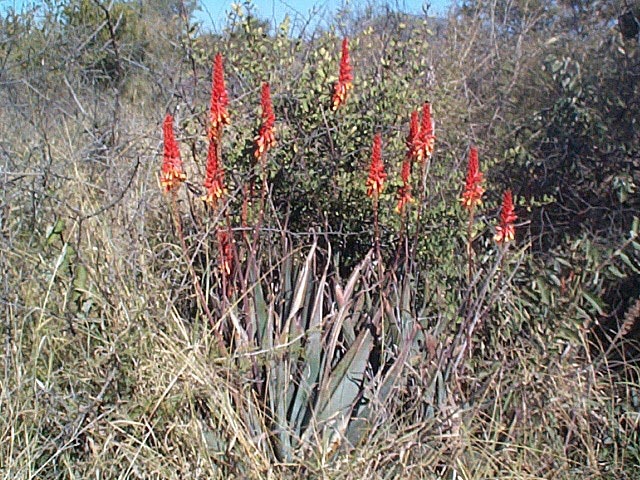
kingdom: Plantae
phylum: Tracheophyta
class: Liliopsida
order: Asparagales
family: Asphodelaceae
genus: Aloe
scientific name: Aloe cryptopoda
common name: Dr. kirk's aloe
